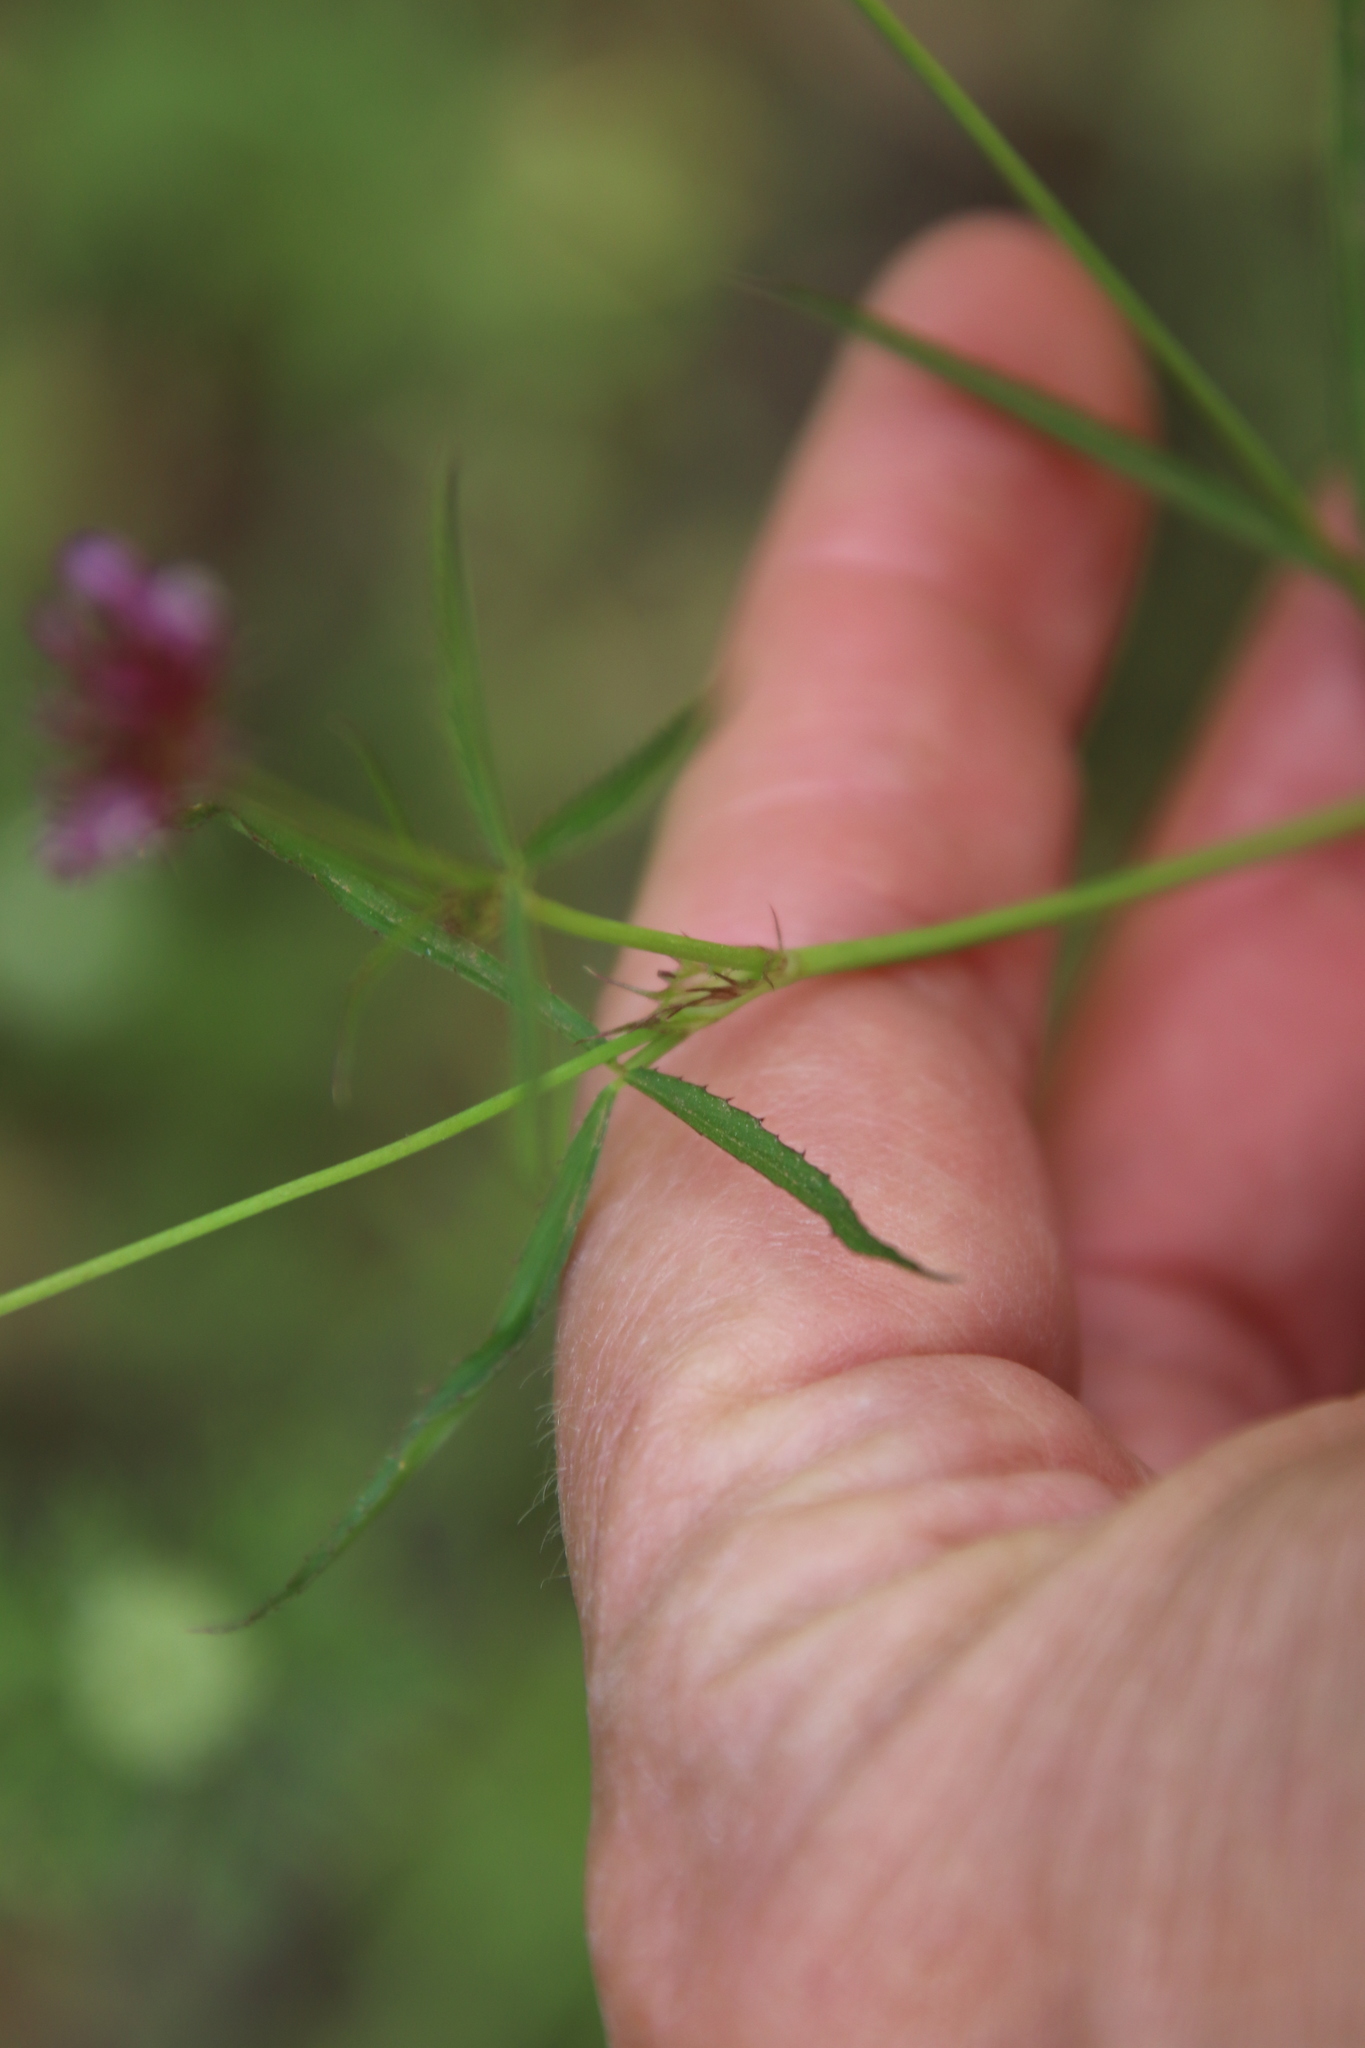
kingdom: Plantae
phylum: Tracheophyta
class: Magnoliopsida
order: Fabales
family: Fabaceae
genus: Trifolium
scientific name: Trifolium willdenovii
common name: Tomcat clover
